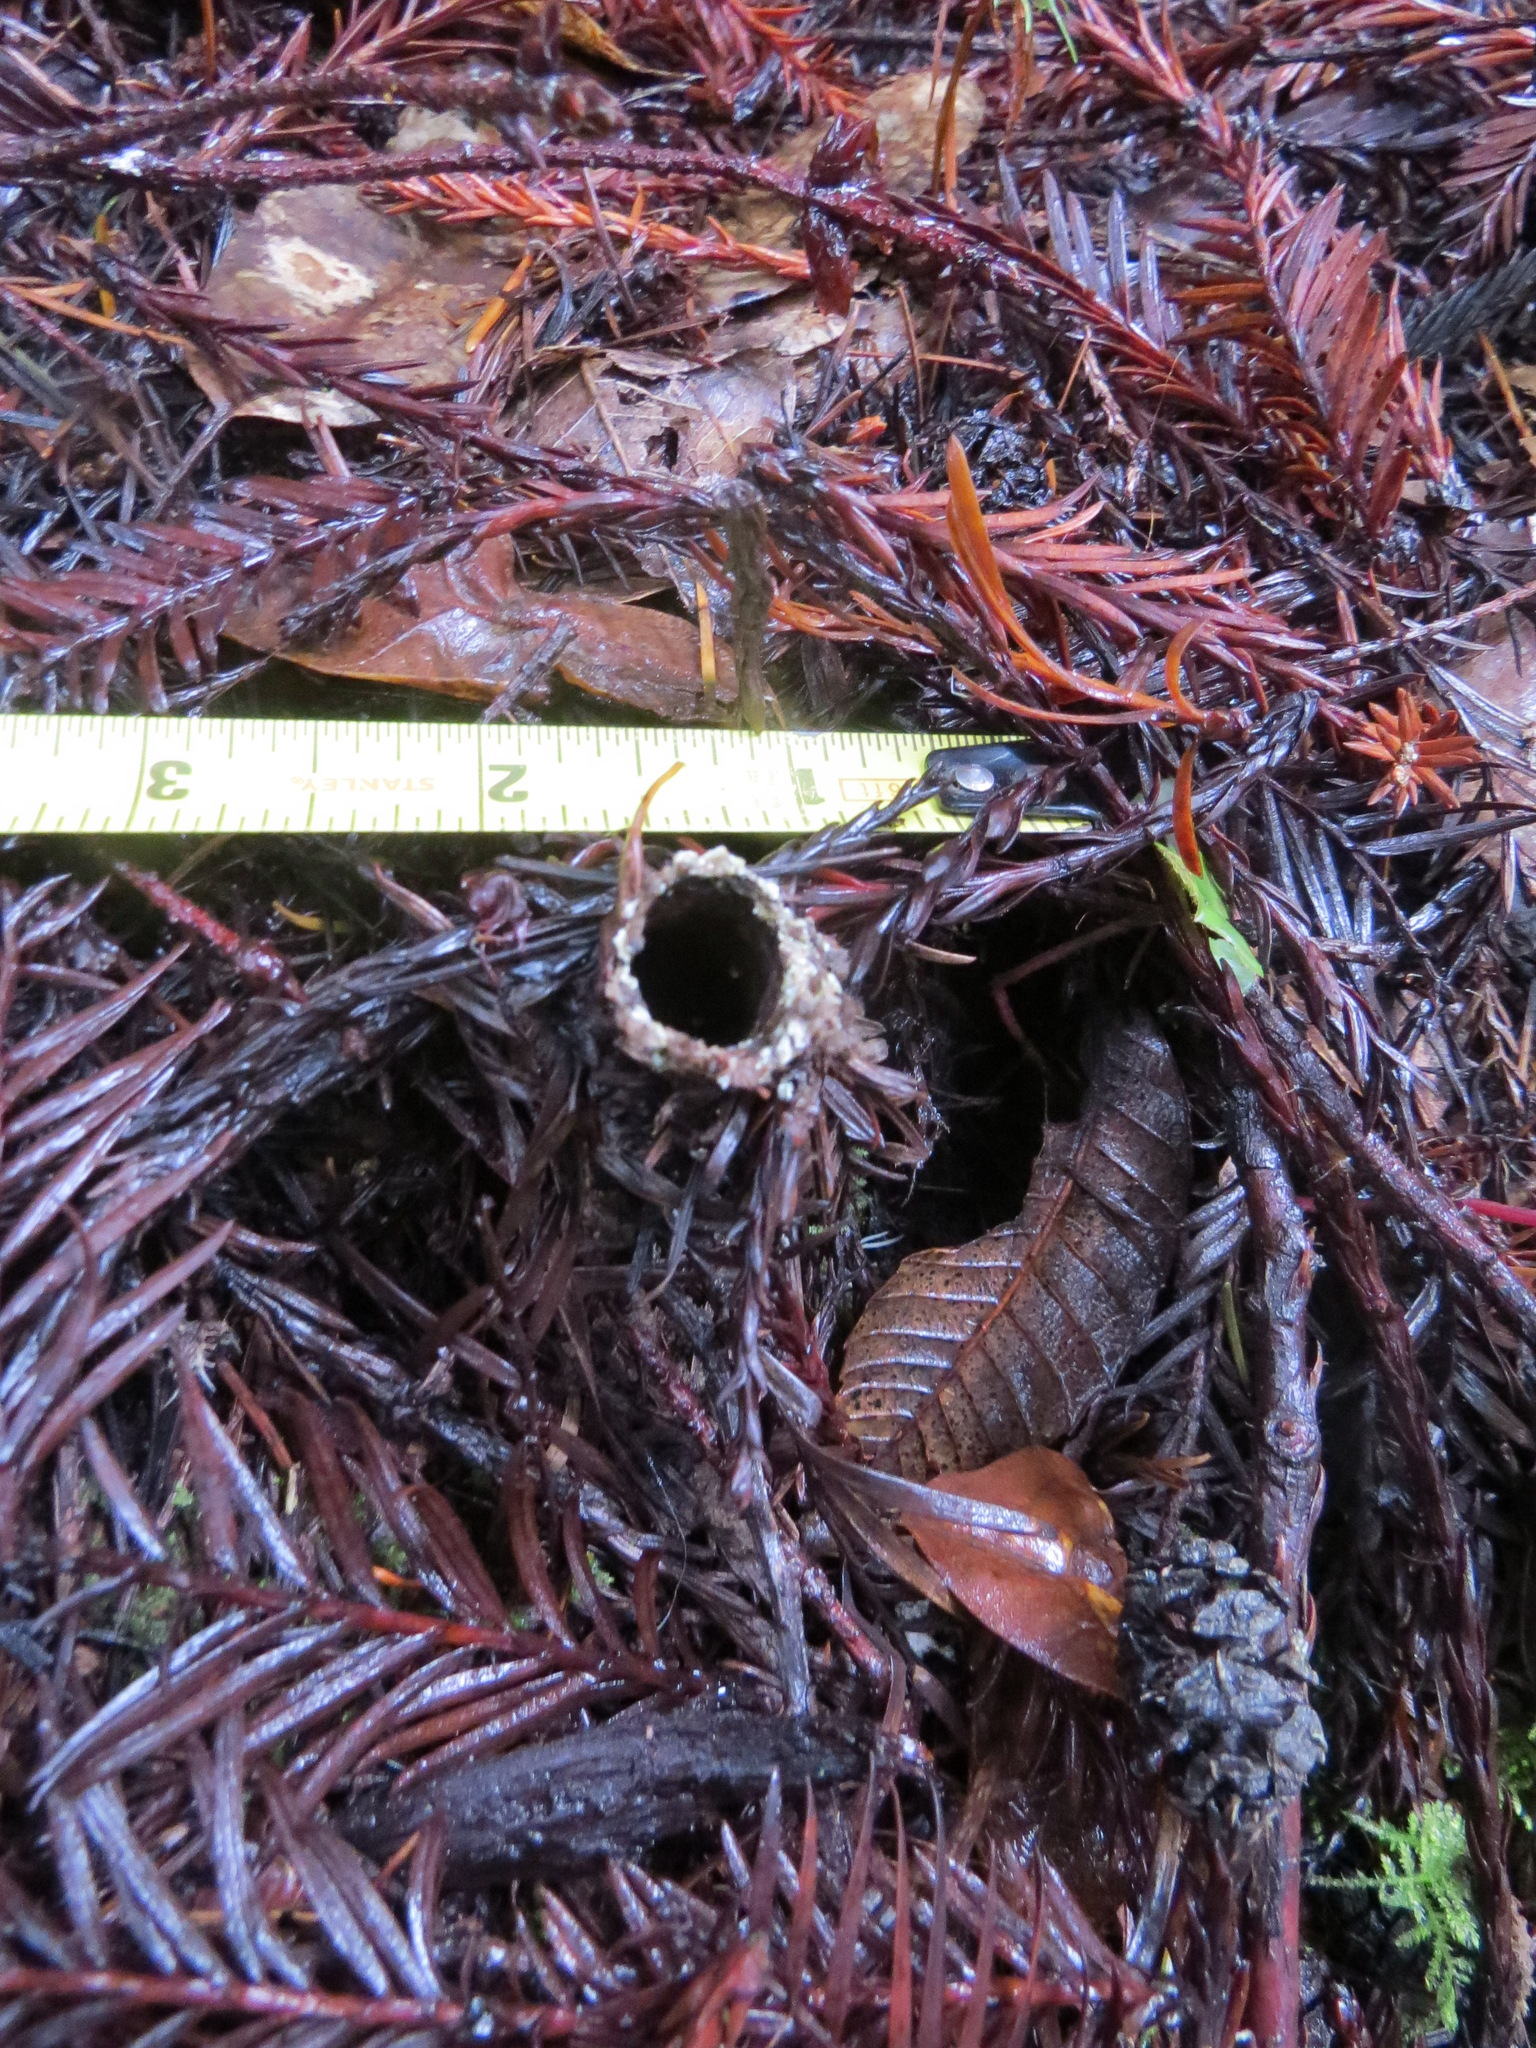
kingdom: Animalia
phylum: Arthropoda
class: Arachnida
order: Araneae
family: Antrodiaetidae
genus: Atypoides
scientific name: Atypoides riversi
